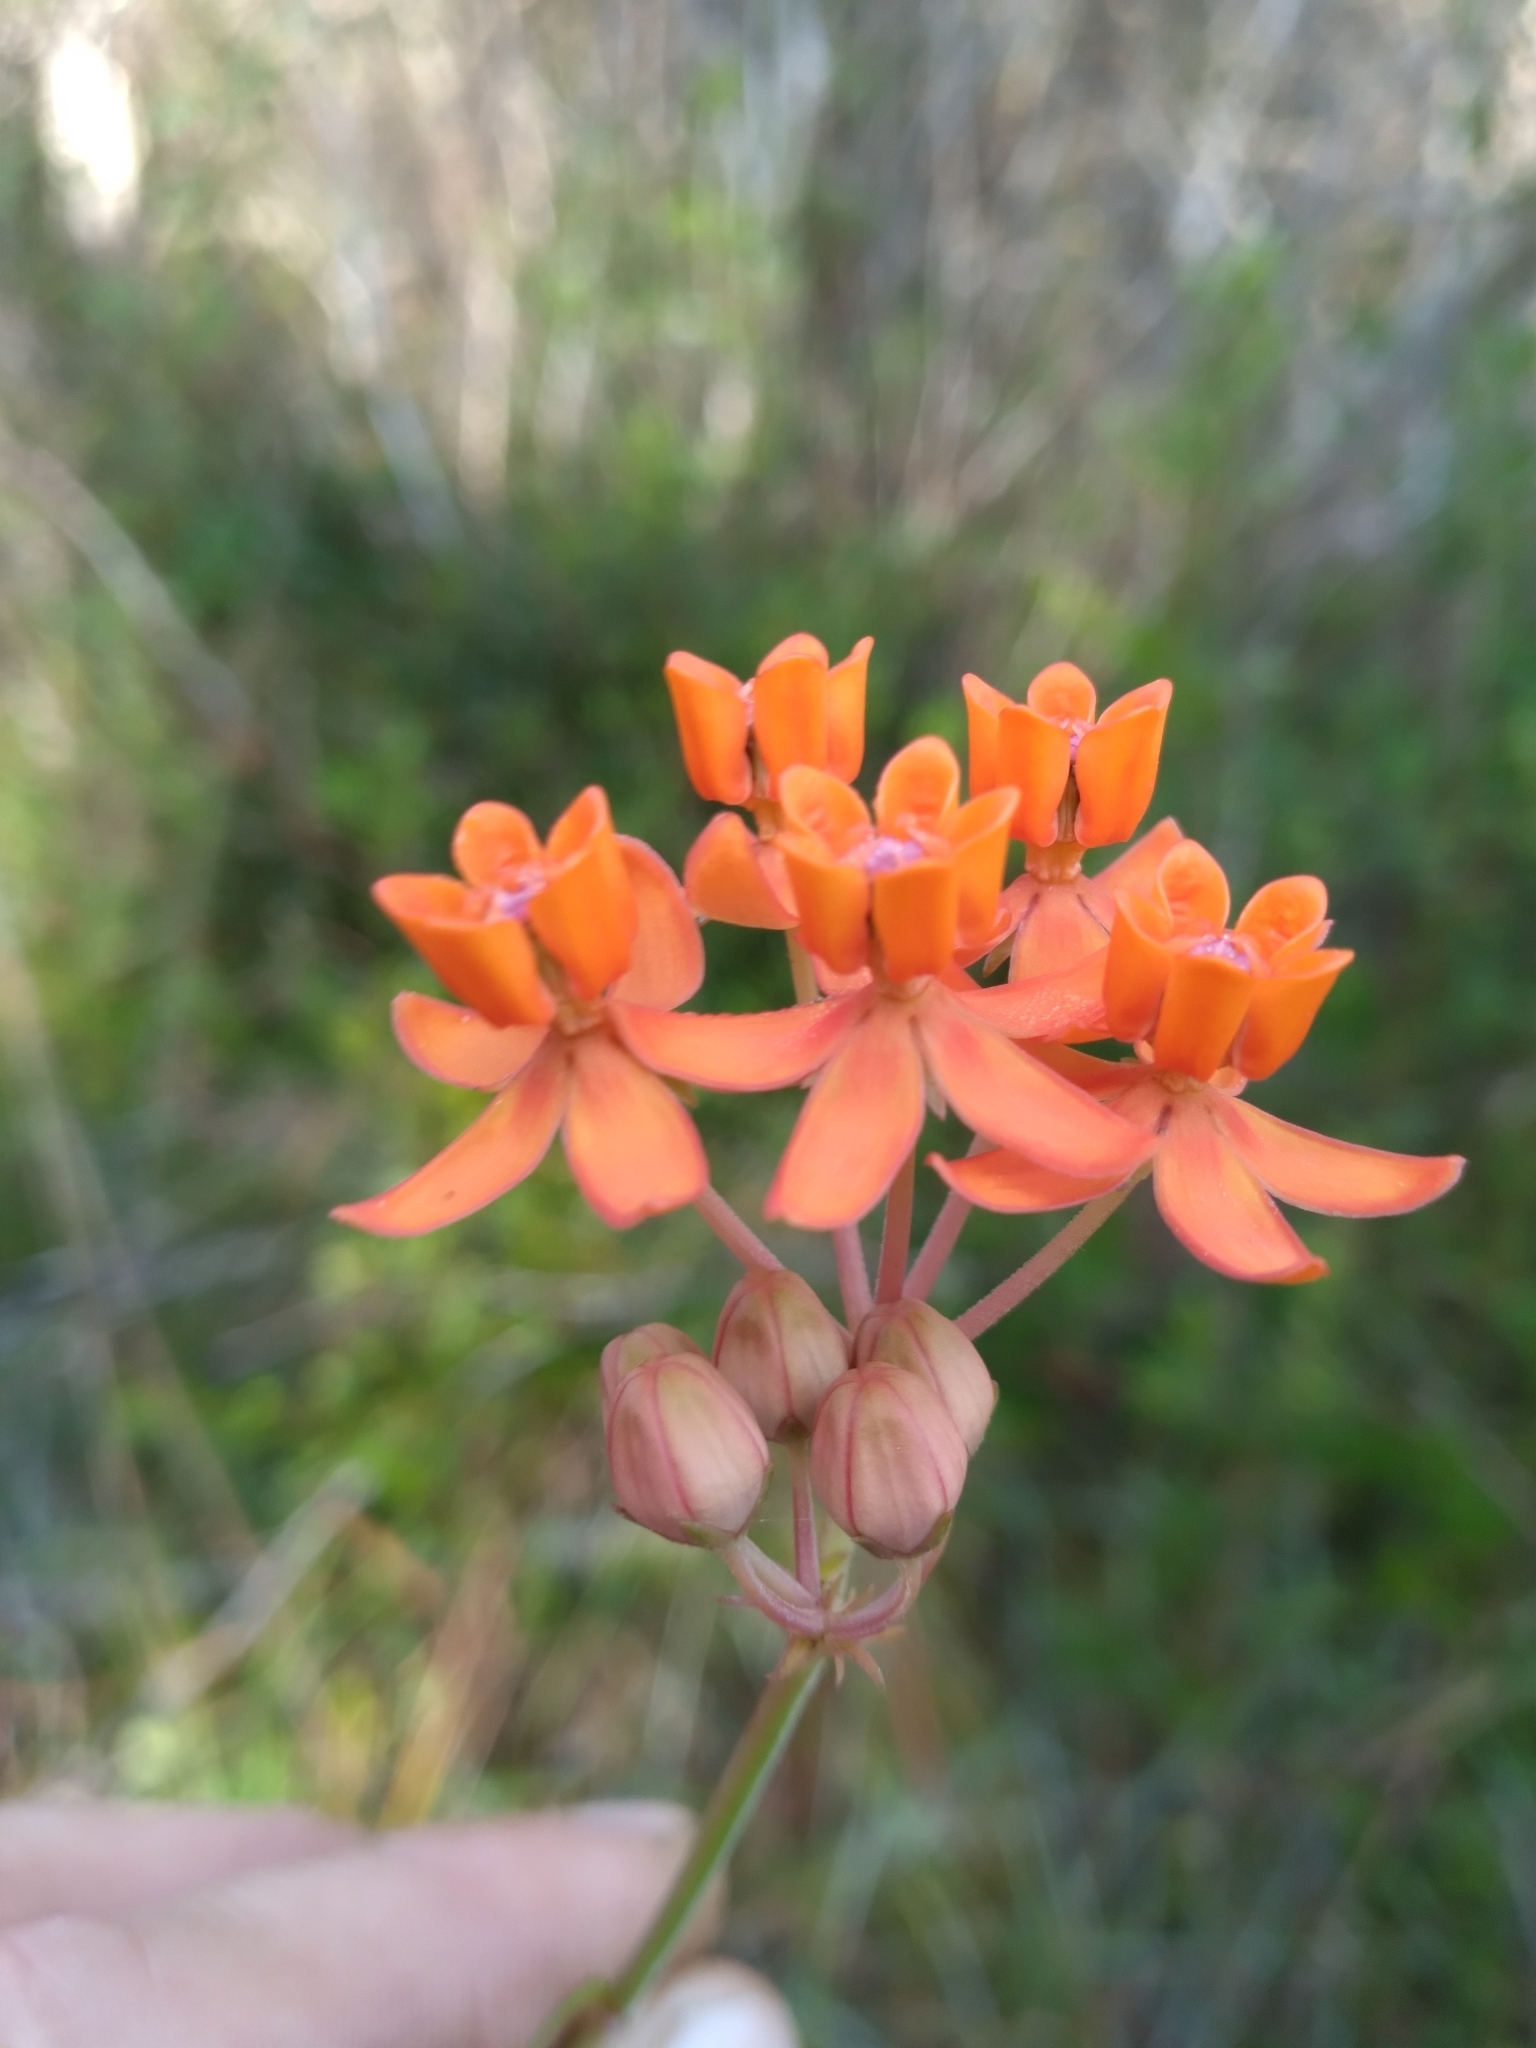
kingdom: Plantae
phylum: Tracheophyta
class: Magnoliopsida
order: Gentianales
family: Apocynaceae
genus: Asclepias
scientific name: Asclepias lanceolata
